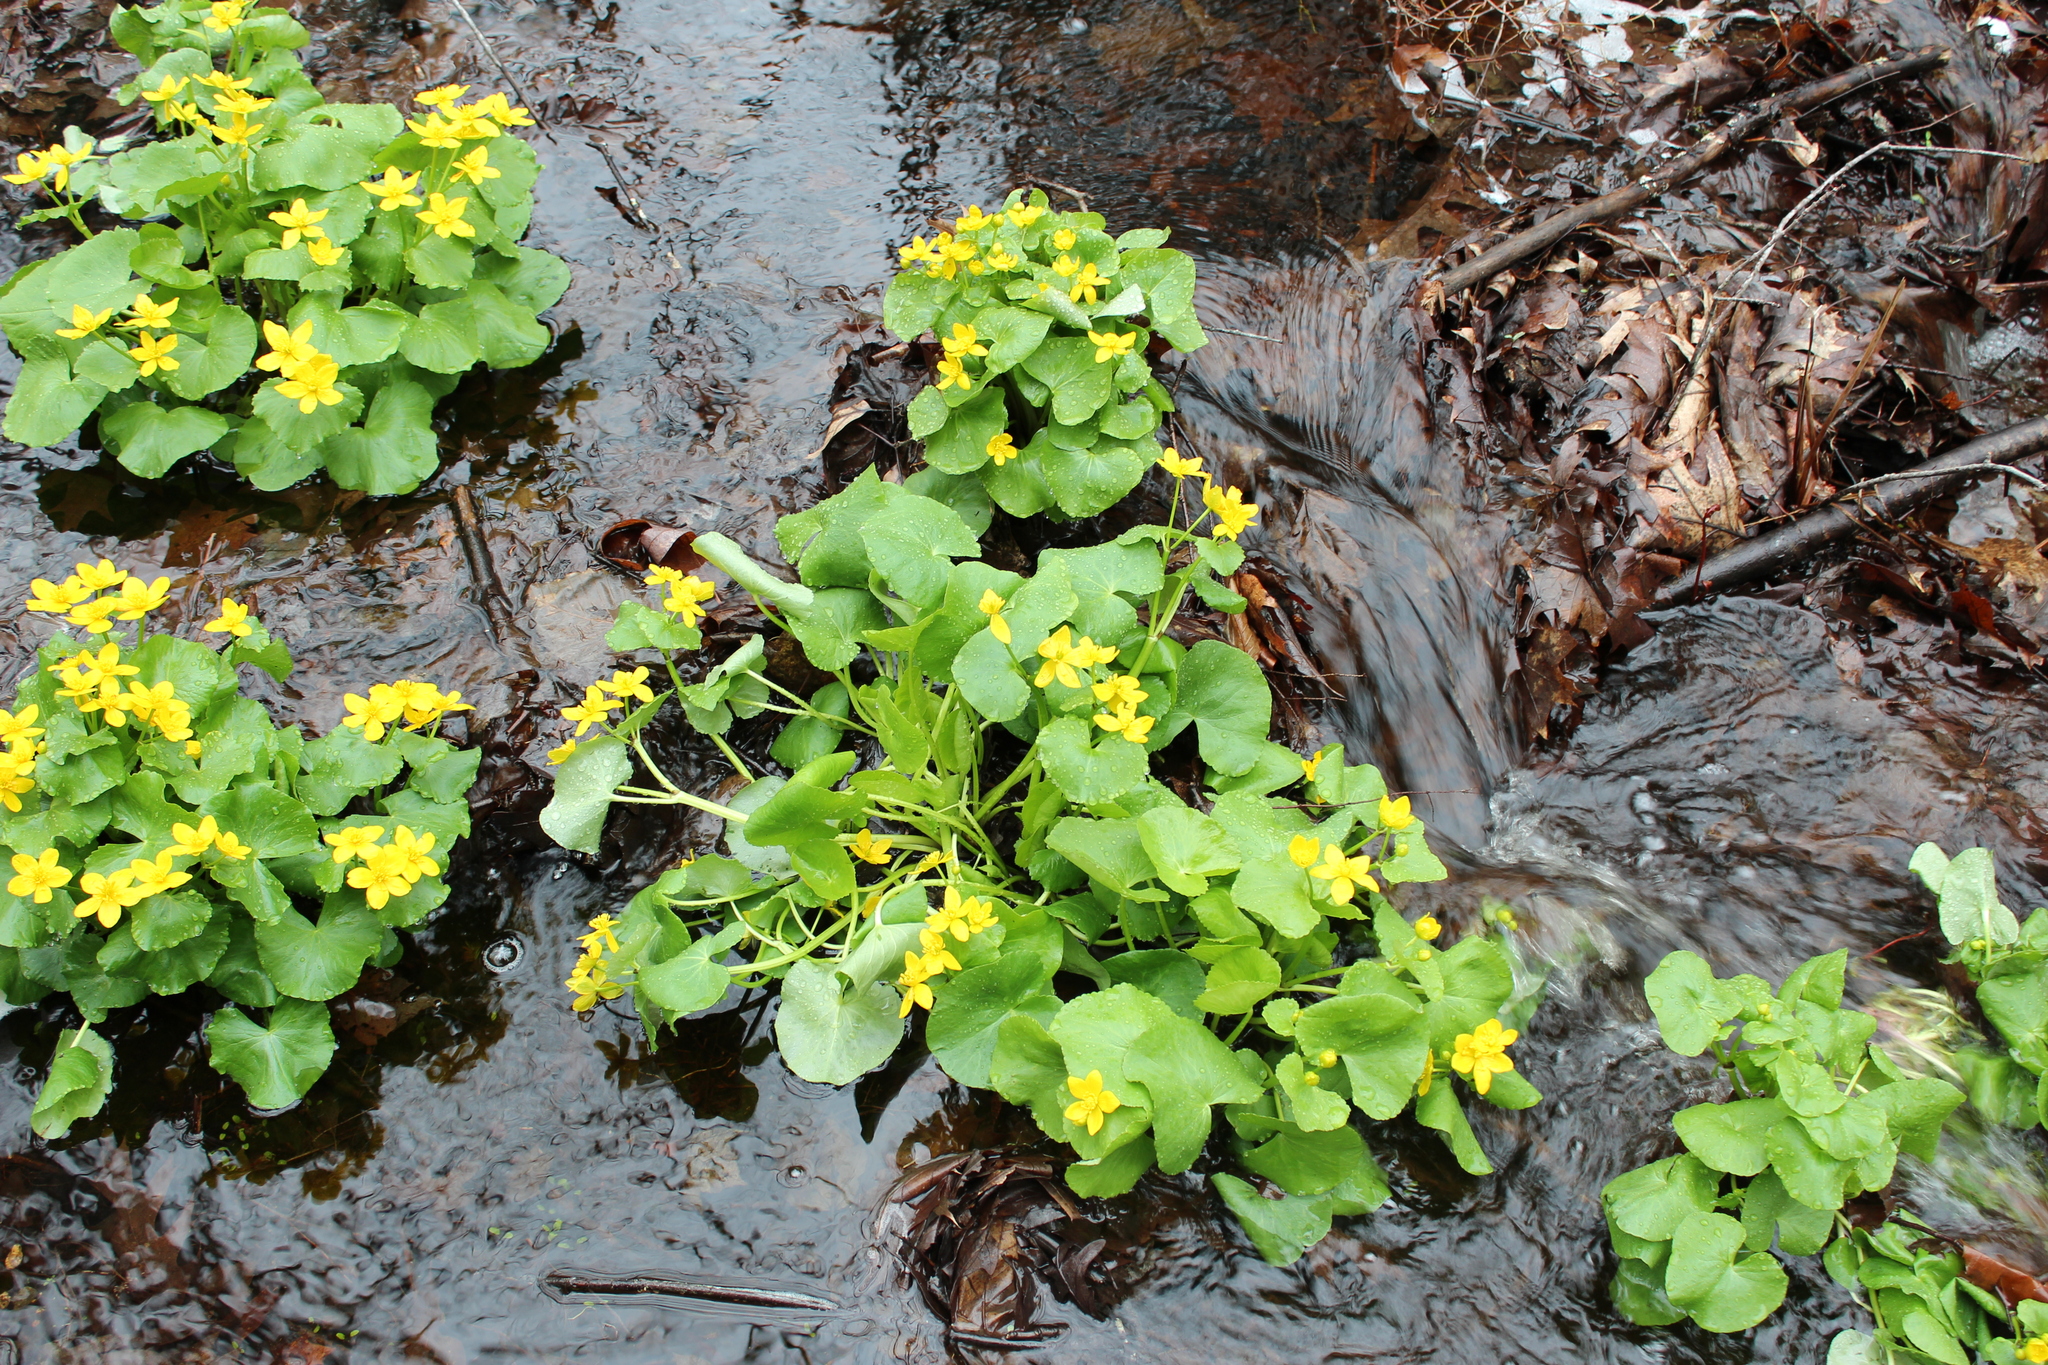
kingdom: Plantae
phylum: Tracheophyta
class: Magnoliopsida
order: Ranunculales
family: Ranunculaceae
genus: Caltha
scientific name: Caltha palustris
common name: Marsh marigold
